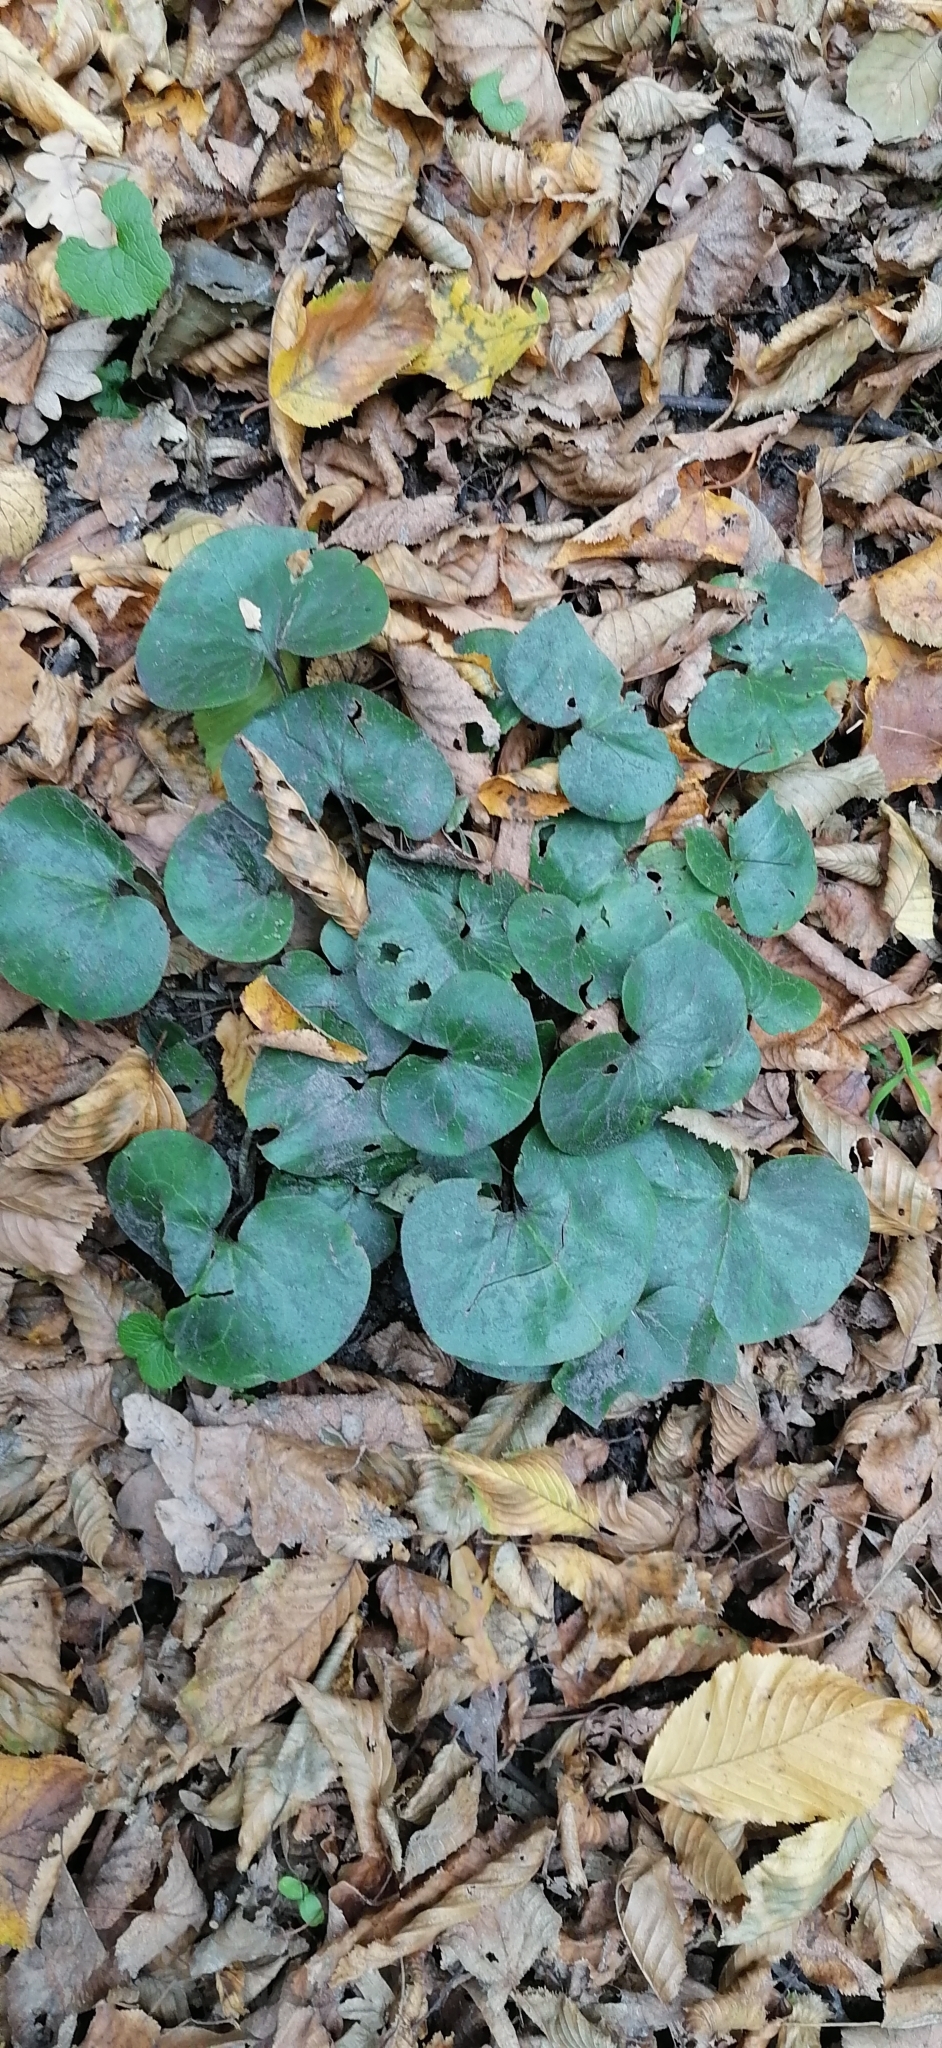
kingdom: Plantae
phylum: Tracheophyta
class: Magnoliopsida
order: Piperales
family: Aristolochiaceae
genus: Asarum
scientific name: Asarum europaeum
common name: Asarabacca
